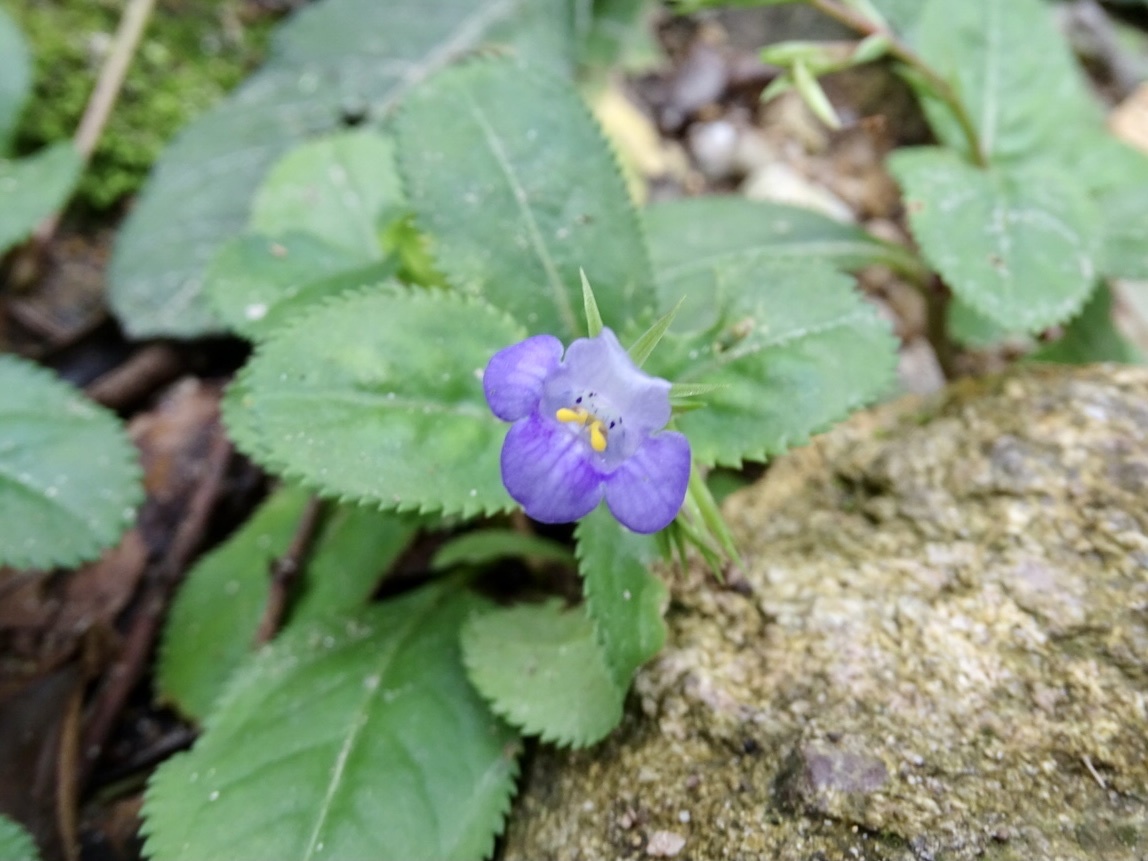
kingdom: Plantae
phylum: Tracheophyta
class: Magnoliopsida
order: Lamiales
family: Linderniaceae
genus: Bonnaya
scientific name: Bonnaya ruelloides
